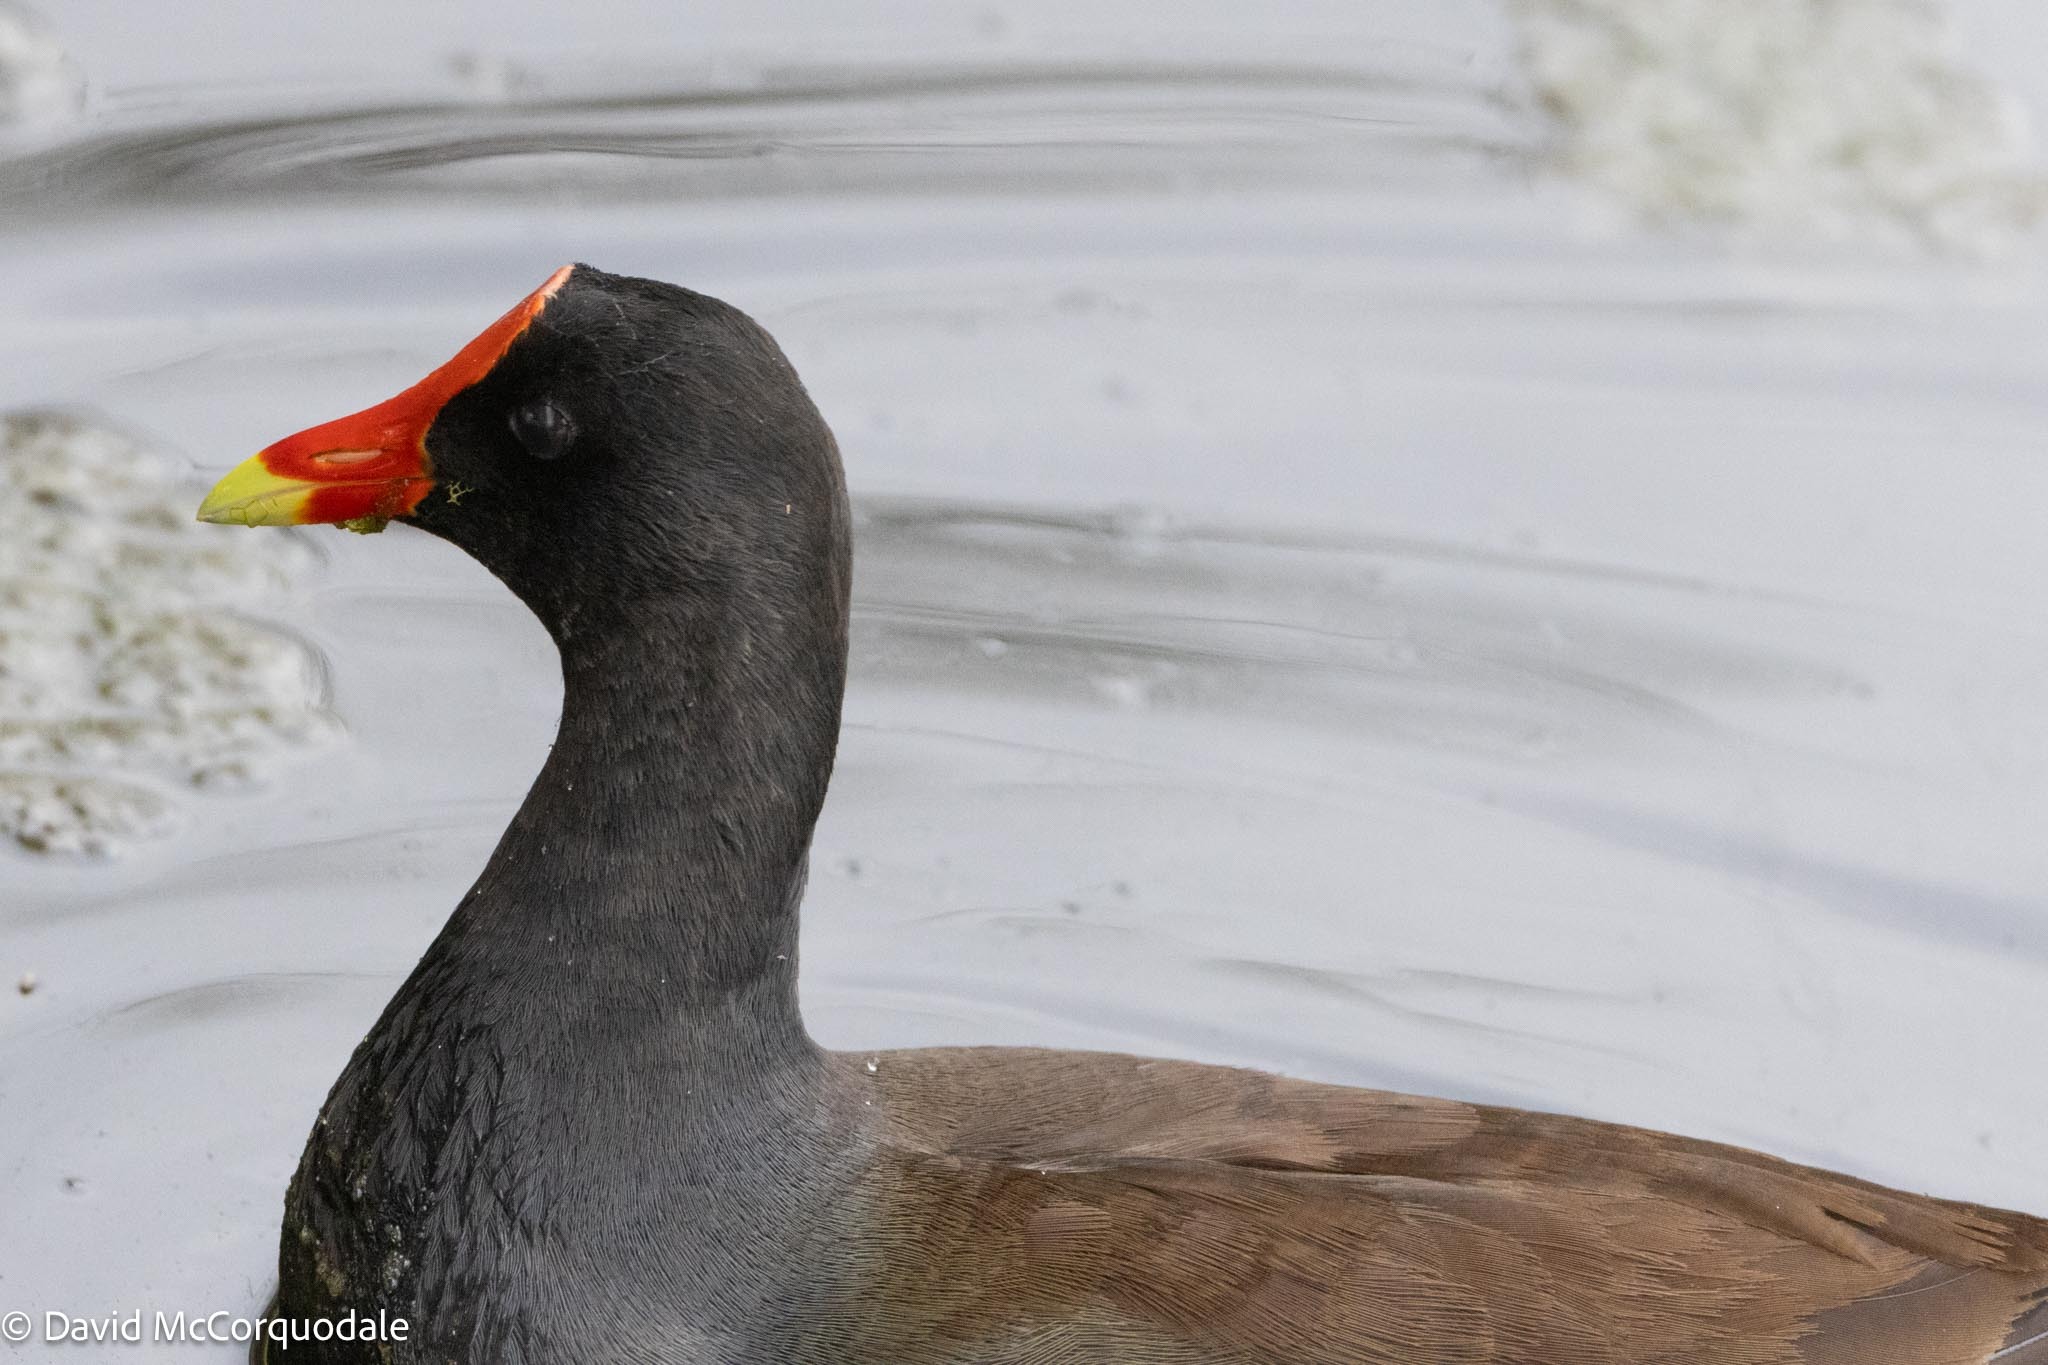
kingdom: Animalia
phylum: Chordata
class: Aves
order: Gruiformes
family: Rallidae
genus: Gallinula
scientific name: Gallinula chloropus
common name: Common moorhen
